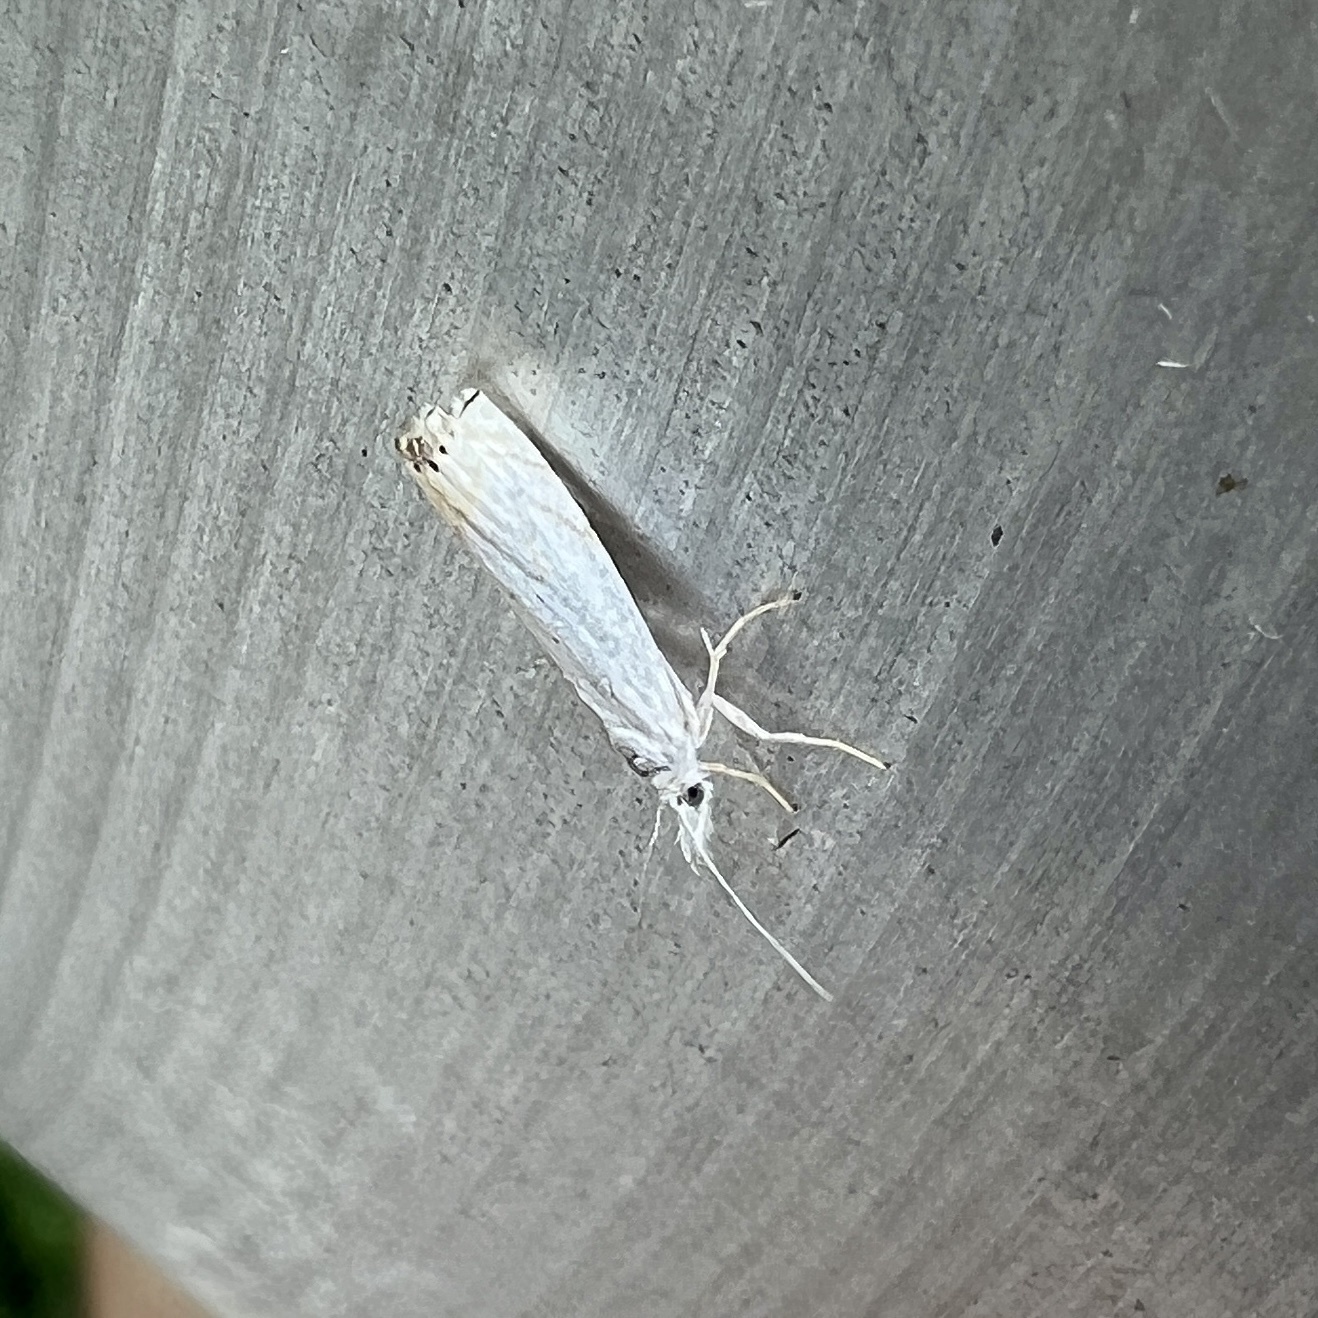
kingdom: Animalia
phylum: Arthropoda
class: Insecta
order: Lepidoptera
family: Crambidae
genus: Crambus
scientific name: Crambus albellus
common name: Small white grass-veneer
